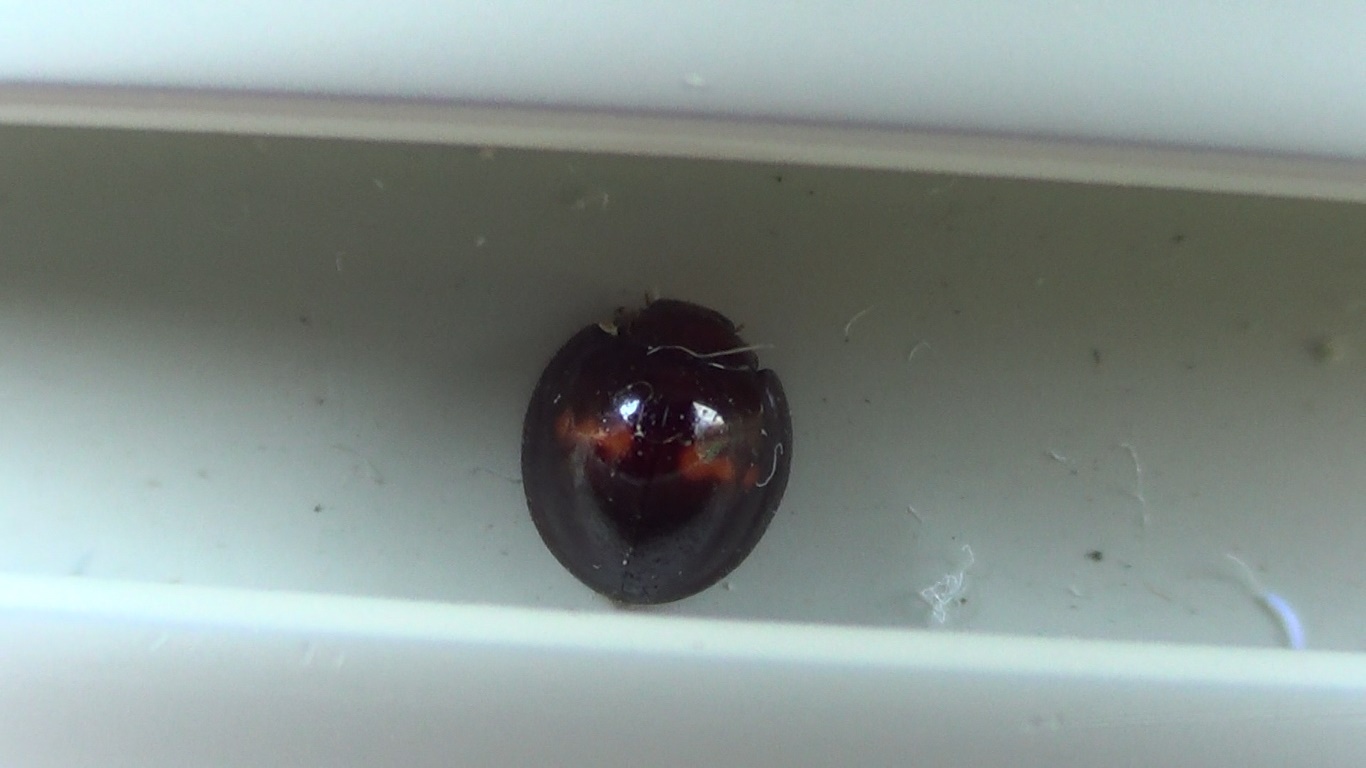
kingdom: Animalia
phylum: Arthropoda
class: Insecta
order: Coleoptera
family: Coccinellidae
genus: Chilocorus
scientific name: Chilocorus bipustulatus
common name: Heather ladybird
